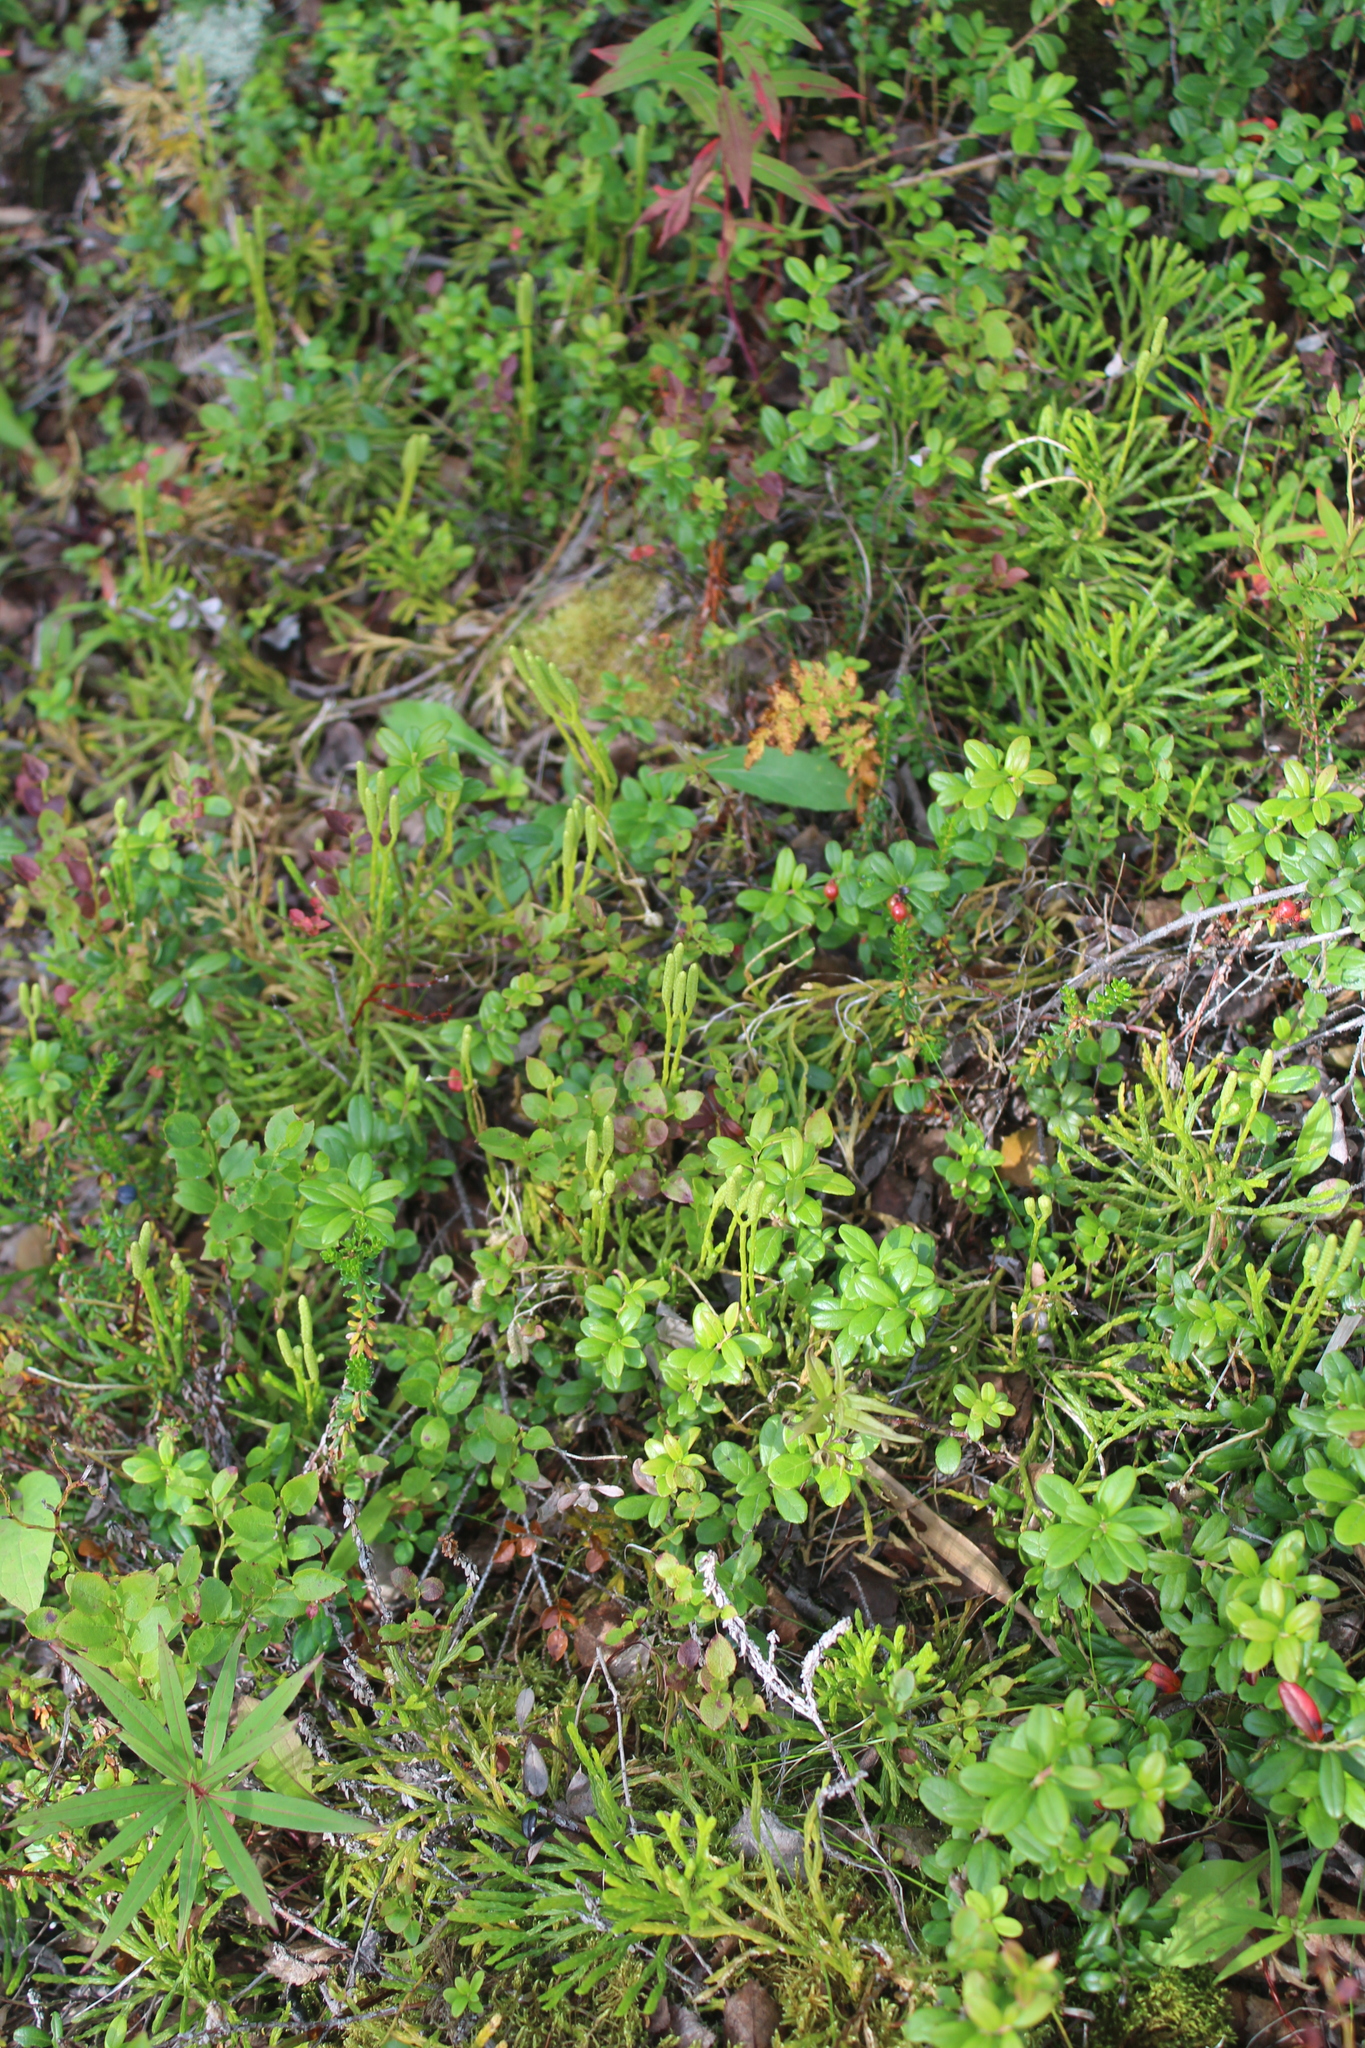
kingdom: Plantae
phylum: Tracheophyta
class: Lycopodiopsida
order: Lycopodiales
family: Lycopodiaceae
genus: Diphasiastrum
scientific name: Diphasiastrum complanatum
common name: Northern running-pine
